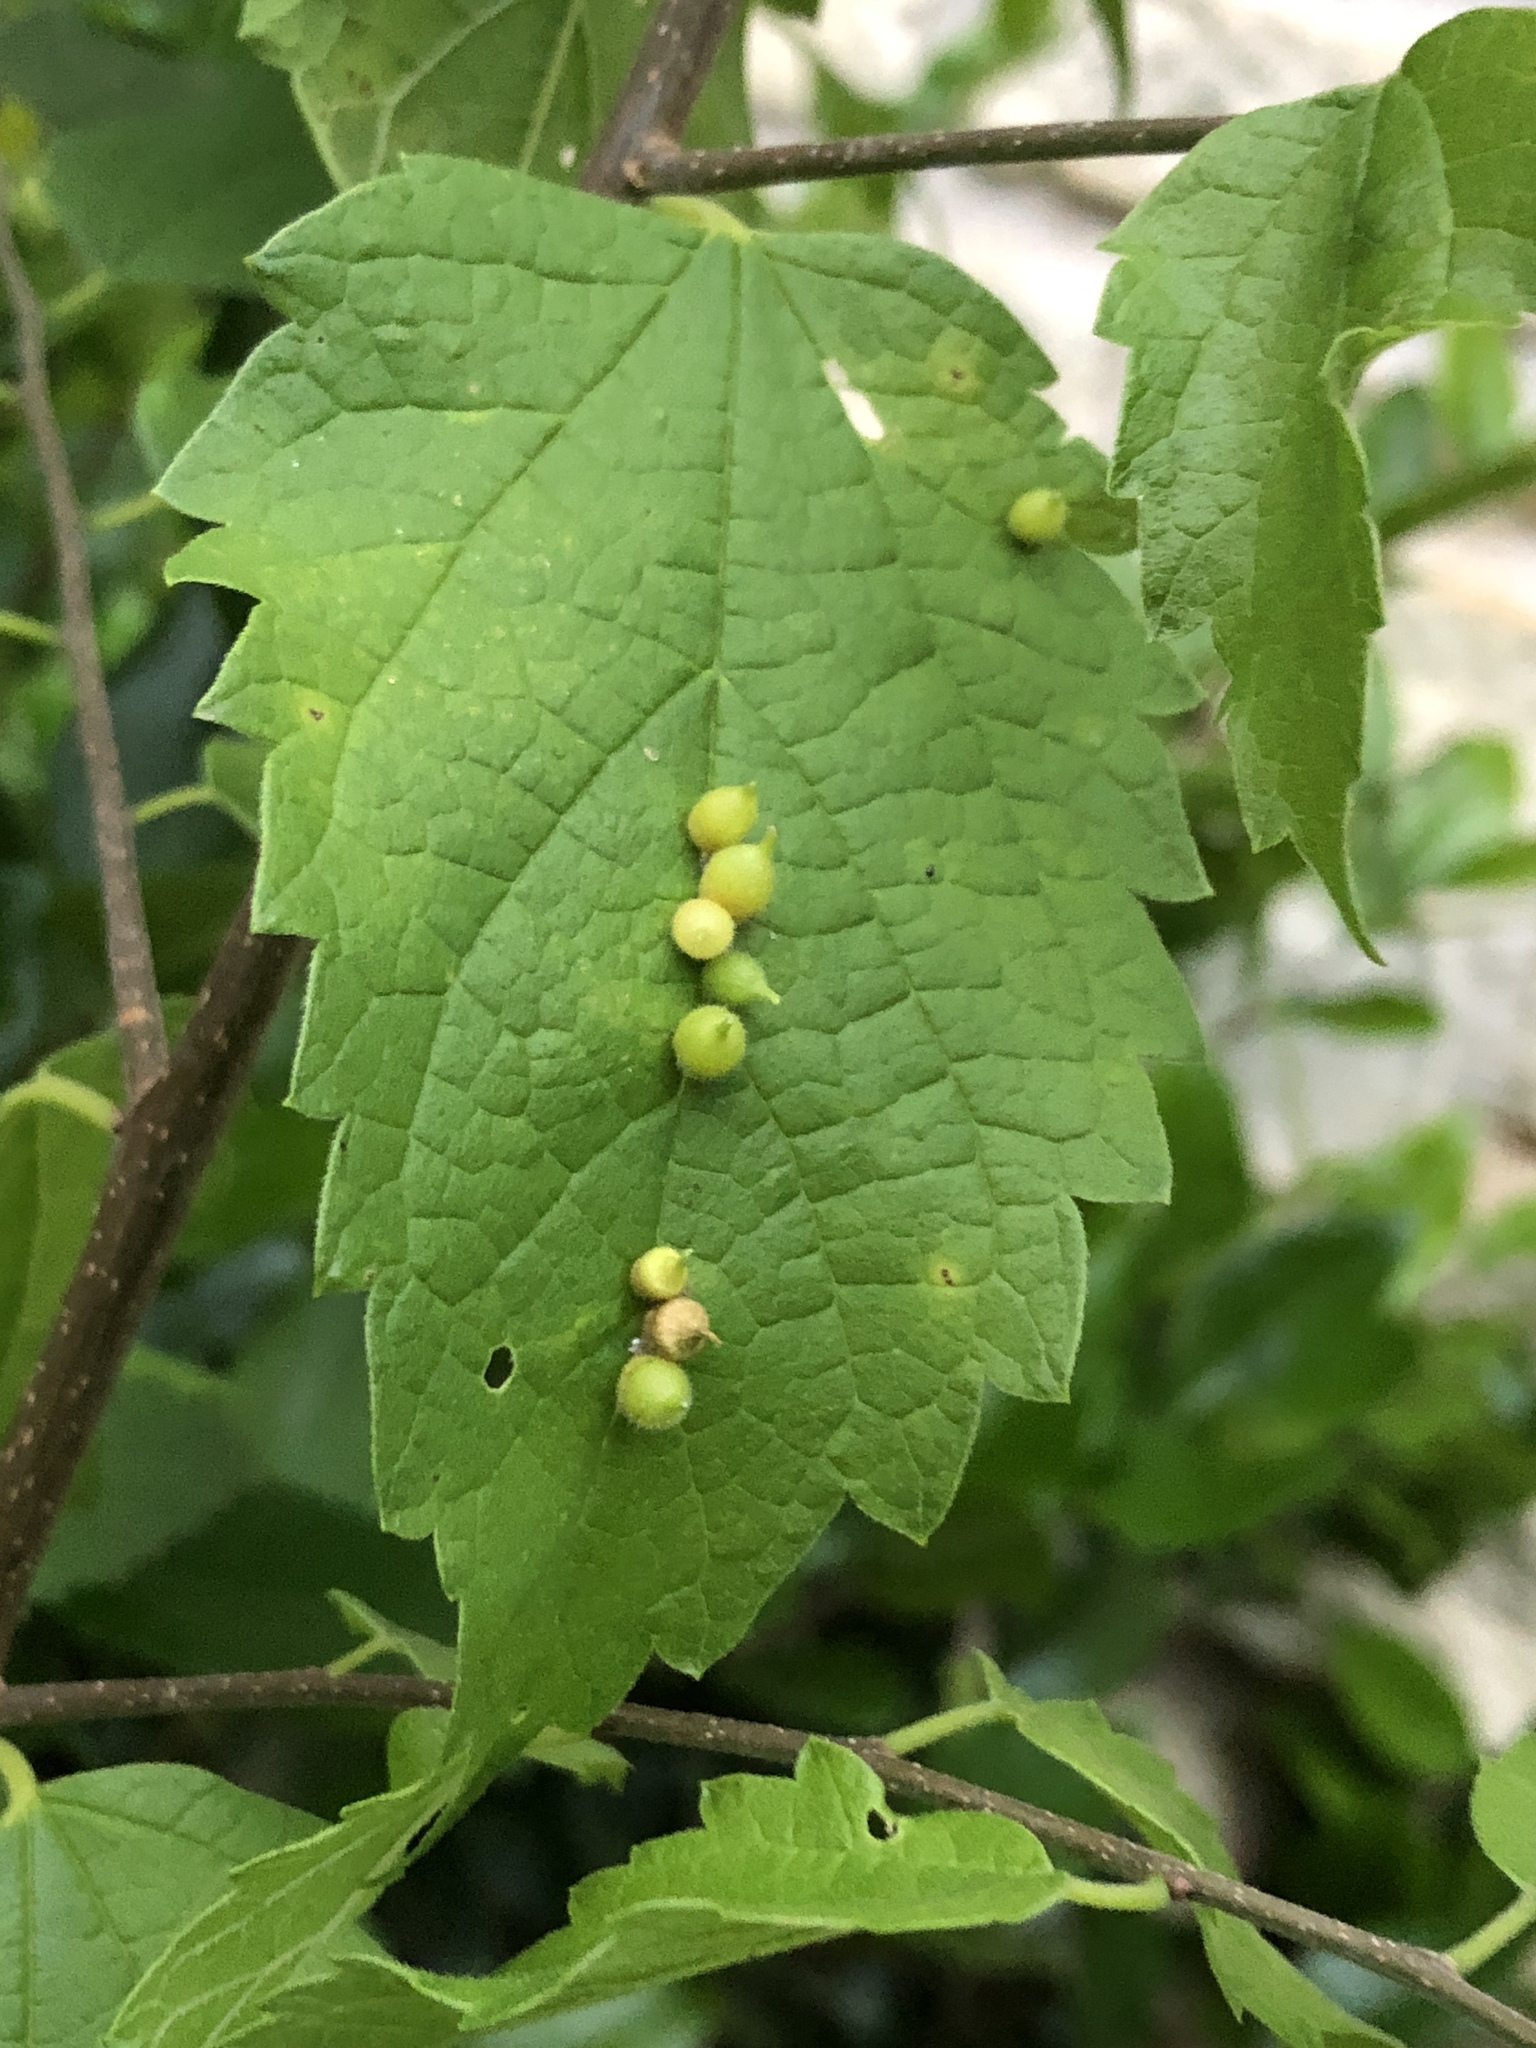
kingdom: Animalia
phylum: Arthropoda
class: Insecta
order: Diptera
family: Cecidomyiidae
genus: Celticecis
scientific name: Celticecis celtiphyllia
